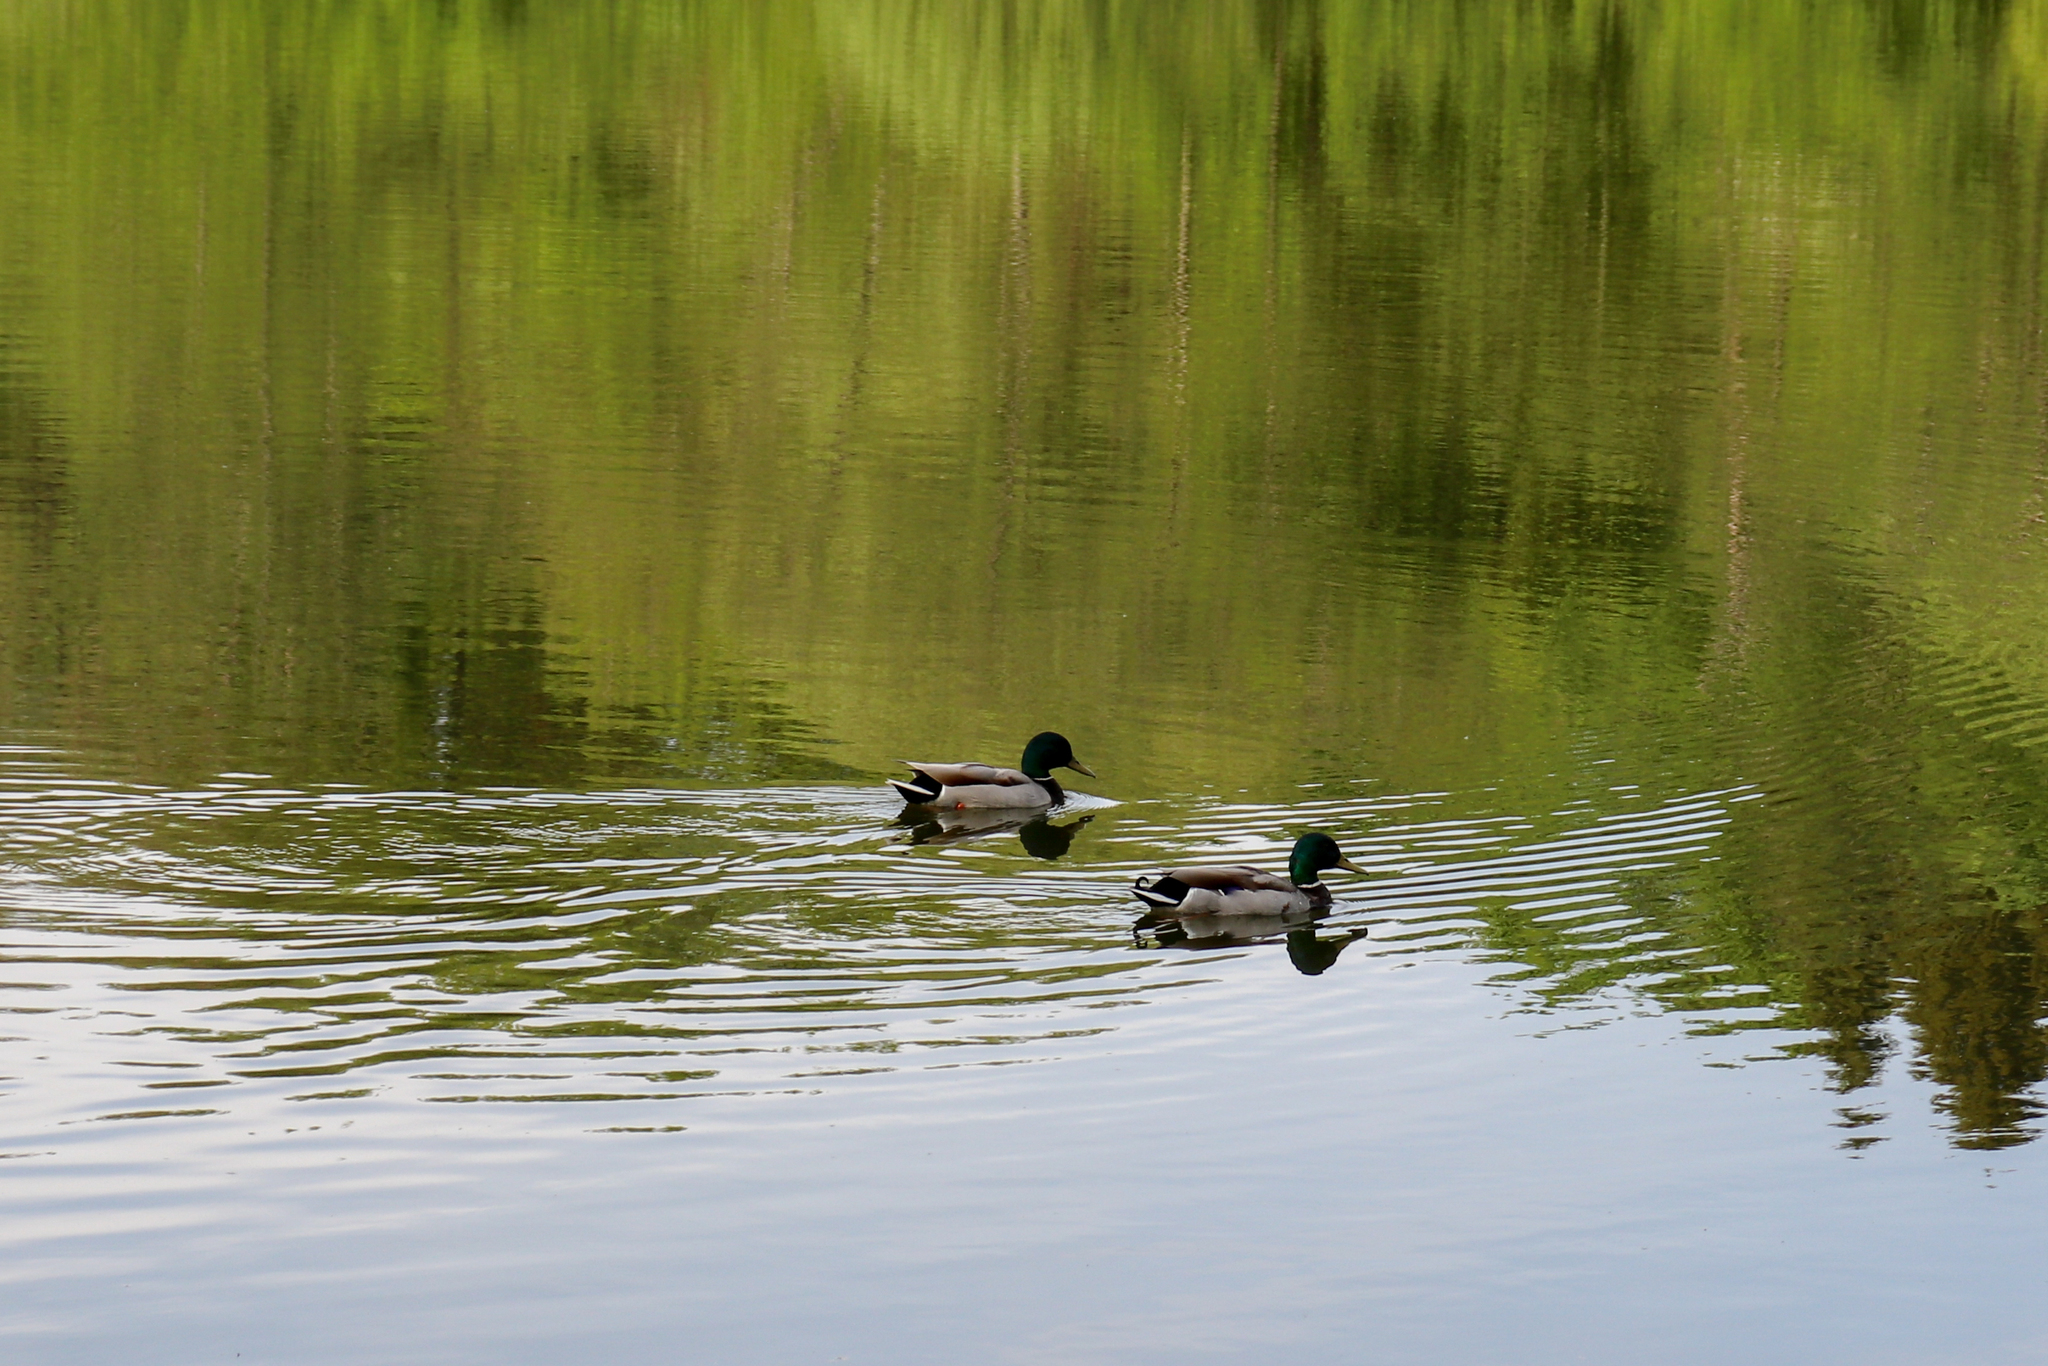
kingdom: Animalia
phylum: Chordata
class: Aves
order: Anseriformes
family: Anatidae
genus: Anas
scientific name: Anas platyrhynchos
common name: Mallard
